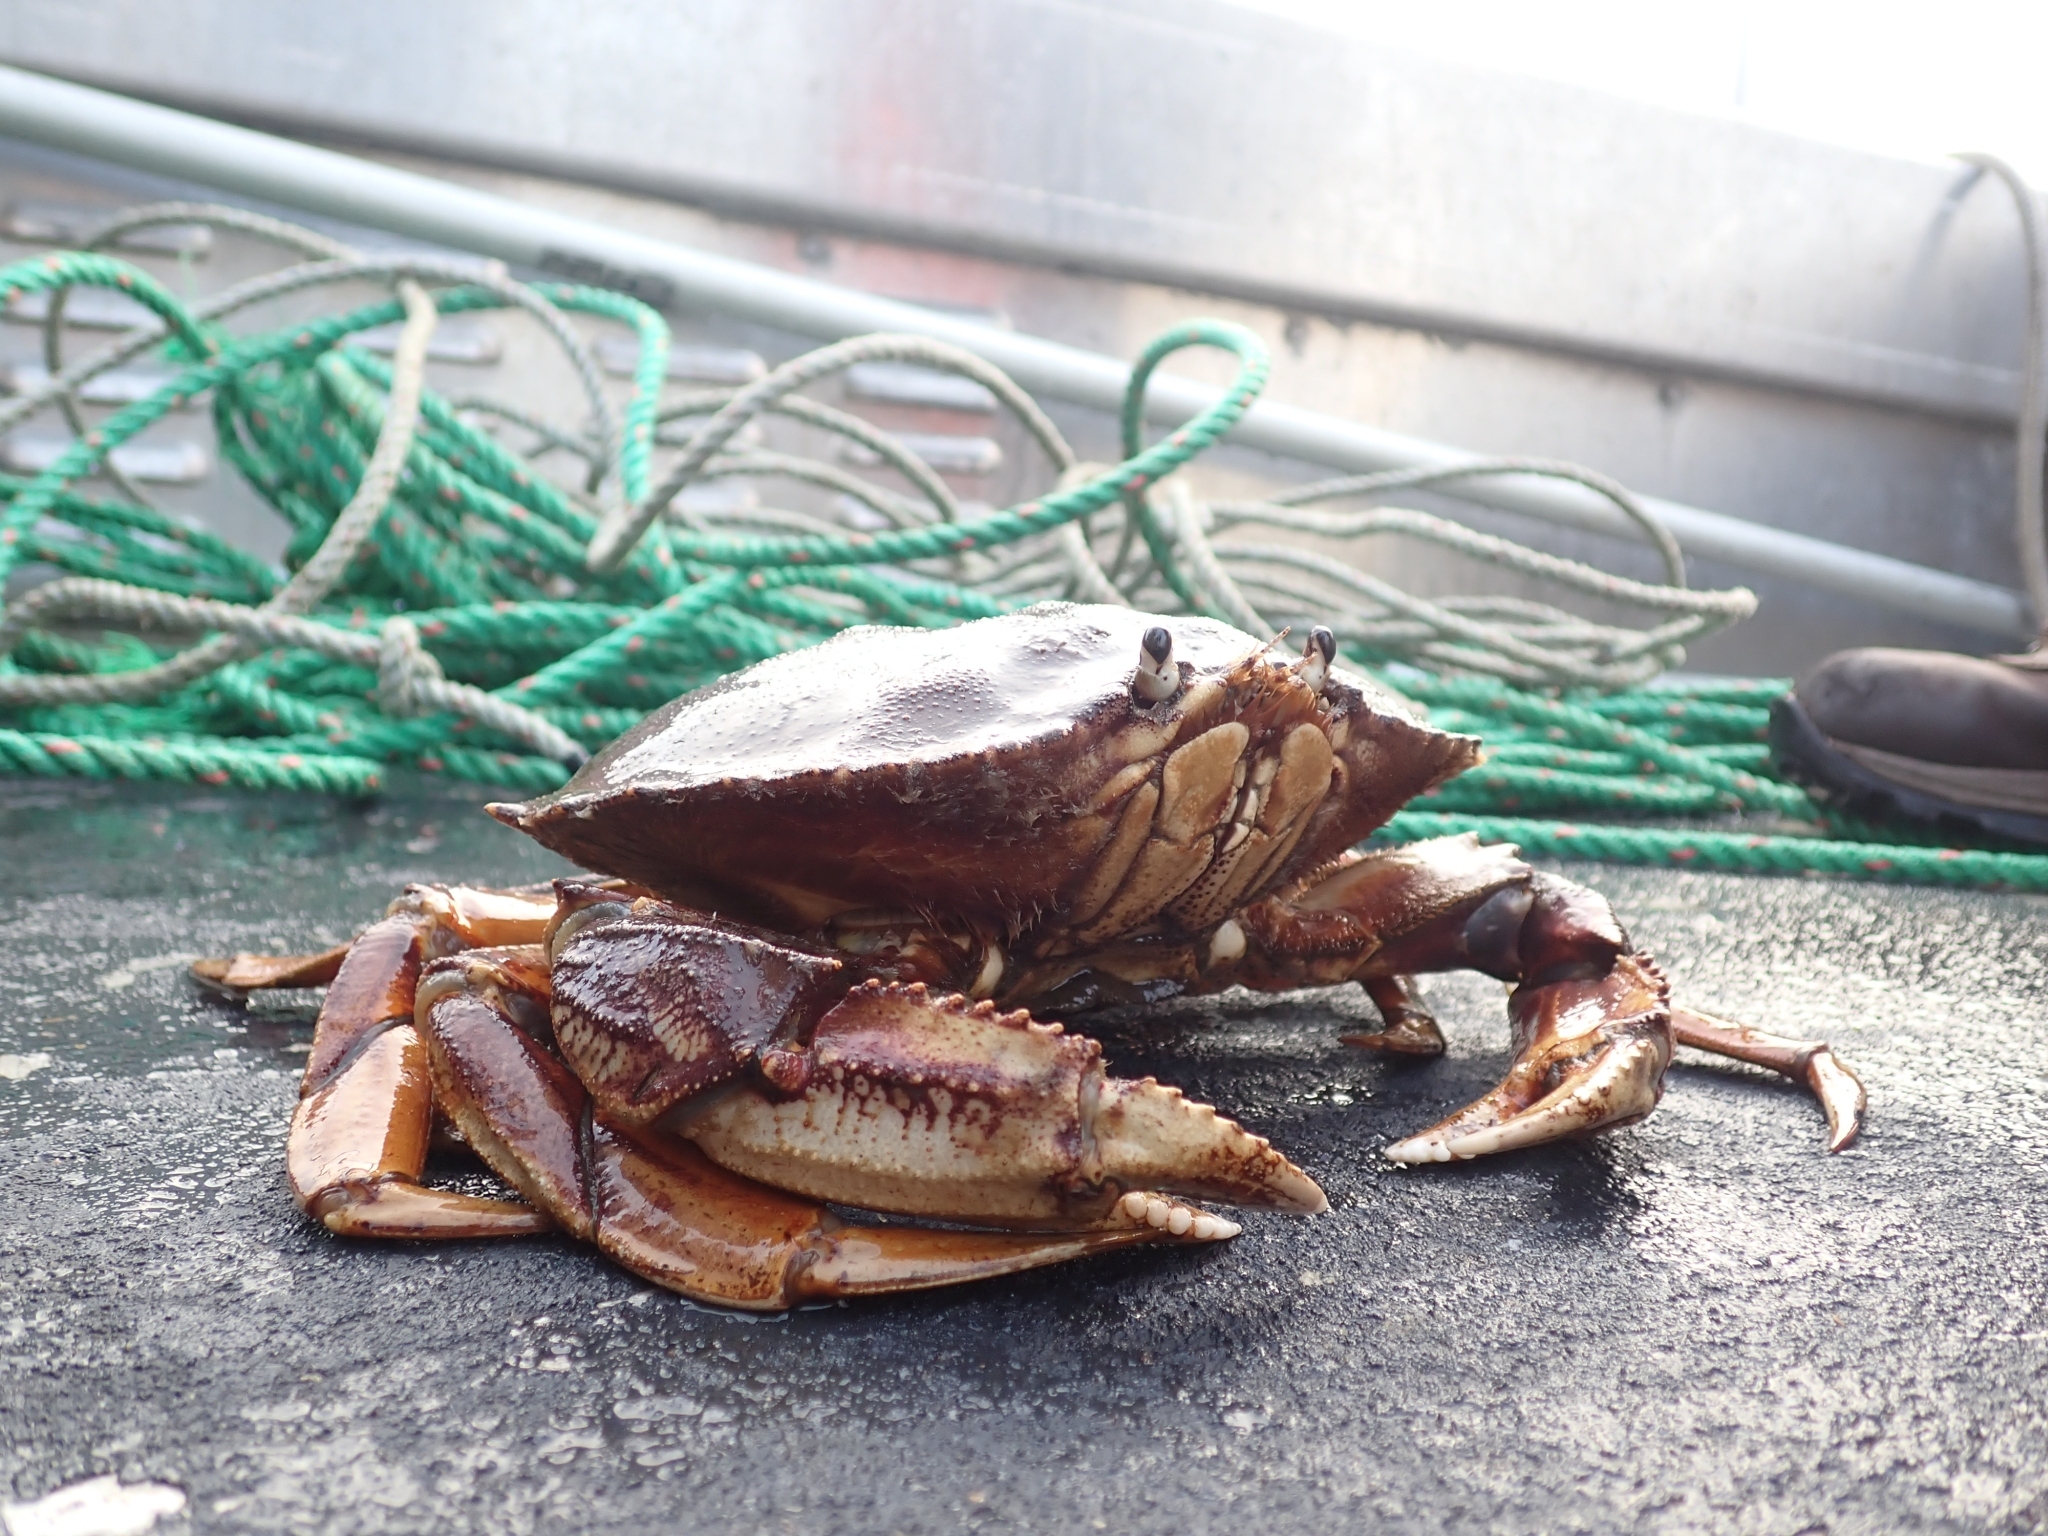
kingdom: Animalia
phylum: Arthropoda
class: Malacostraca
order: Decapoda
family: Cancridae
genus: Metacarcinus
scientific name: Metacarcinus magister
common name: Californian crab
